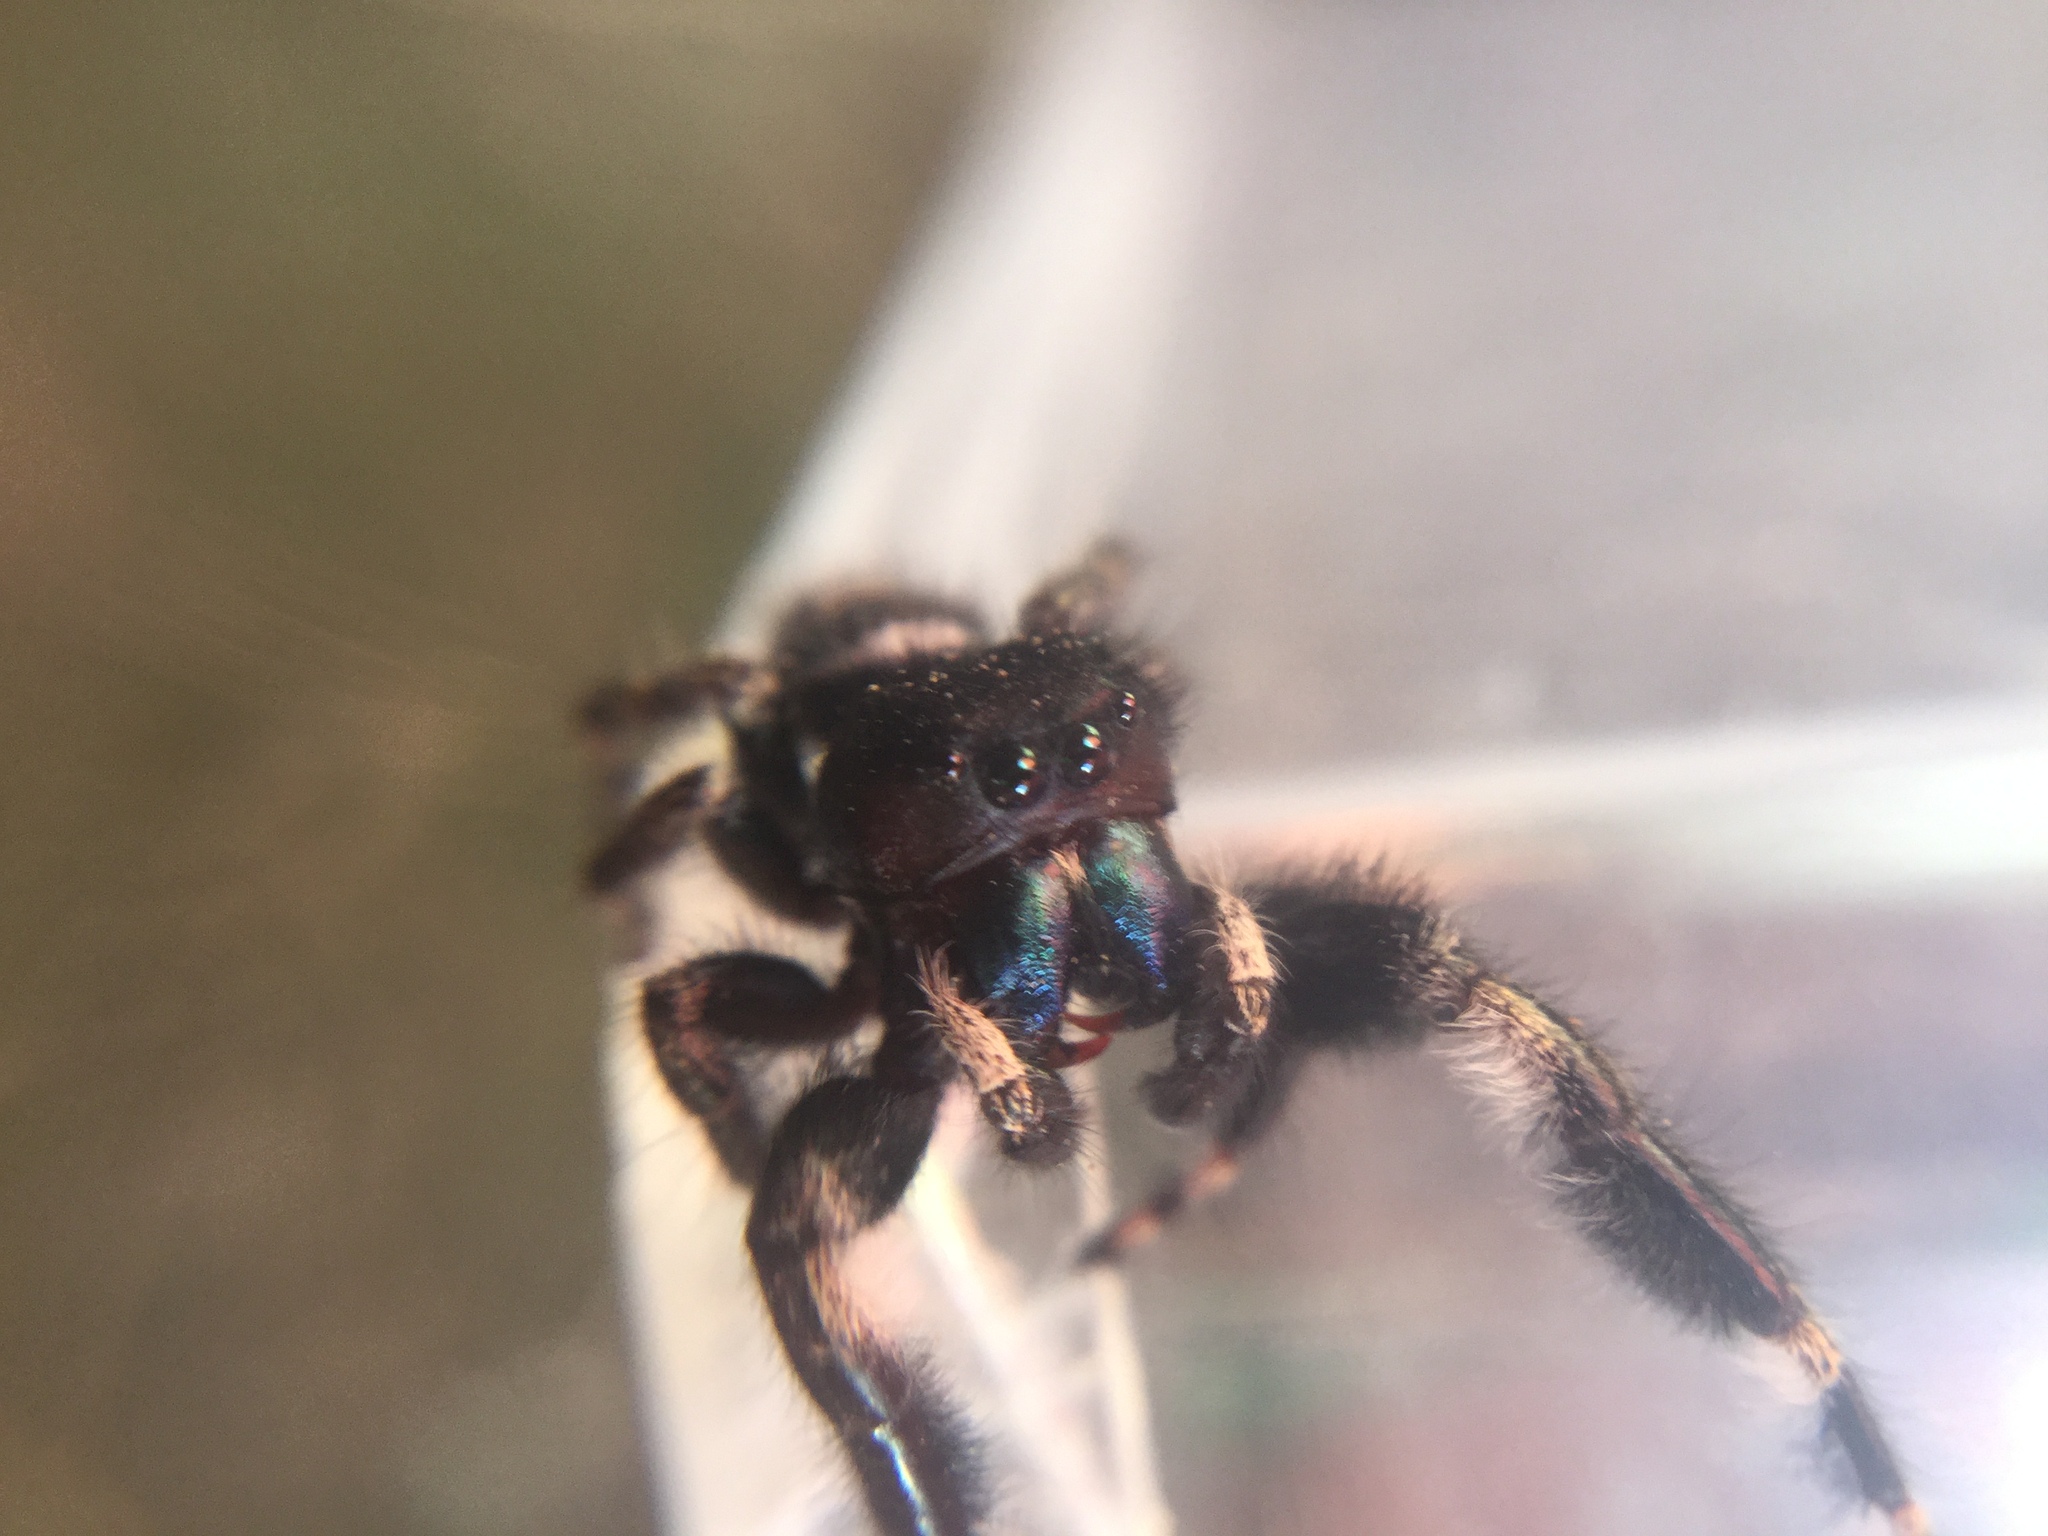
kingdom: Animalia
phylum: Arthropoda
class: Arachnida
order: Araneae
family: Salticidae
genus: Phidippus
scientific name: Phidippus audax
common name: Bold jumper
